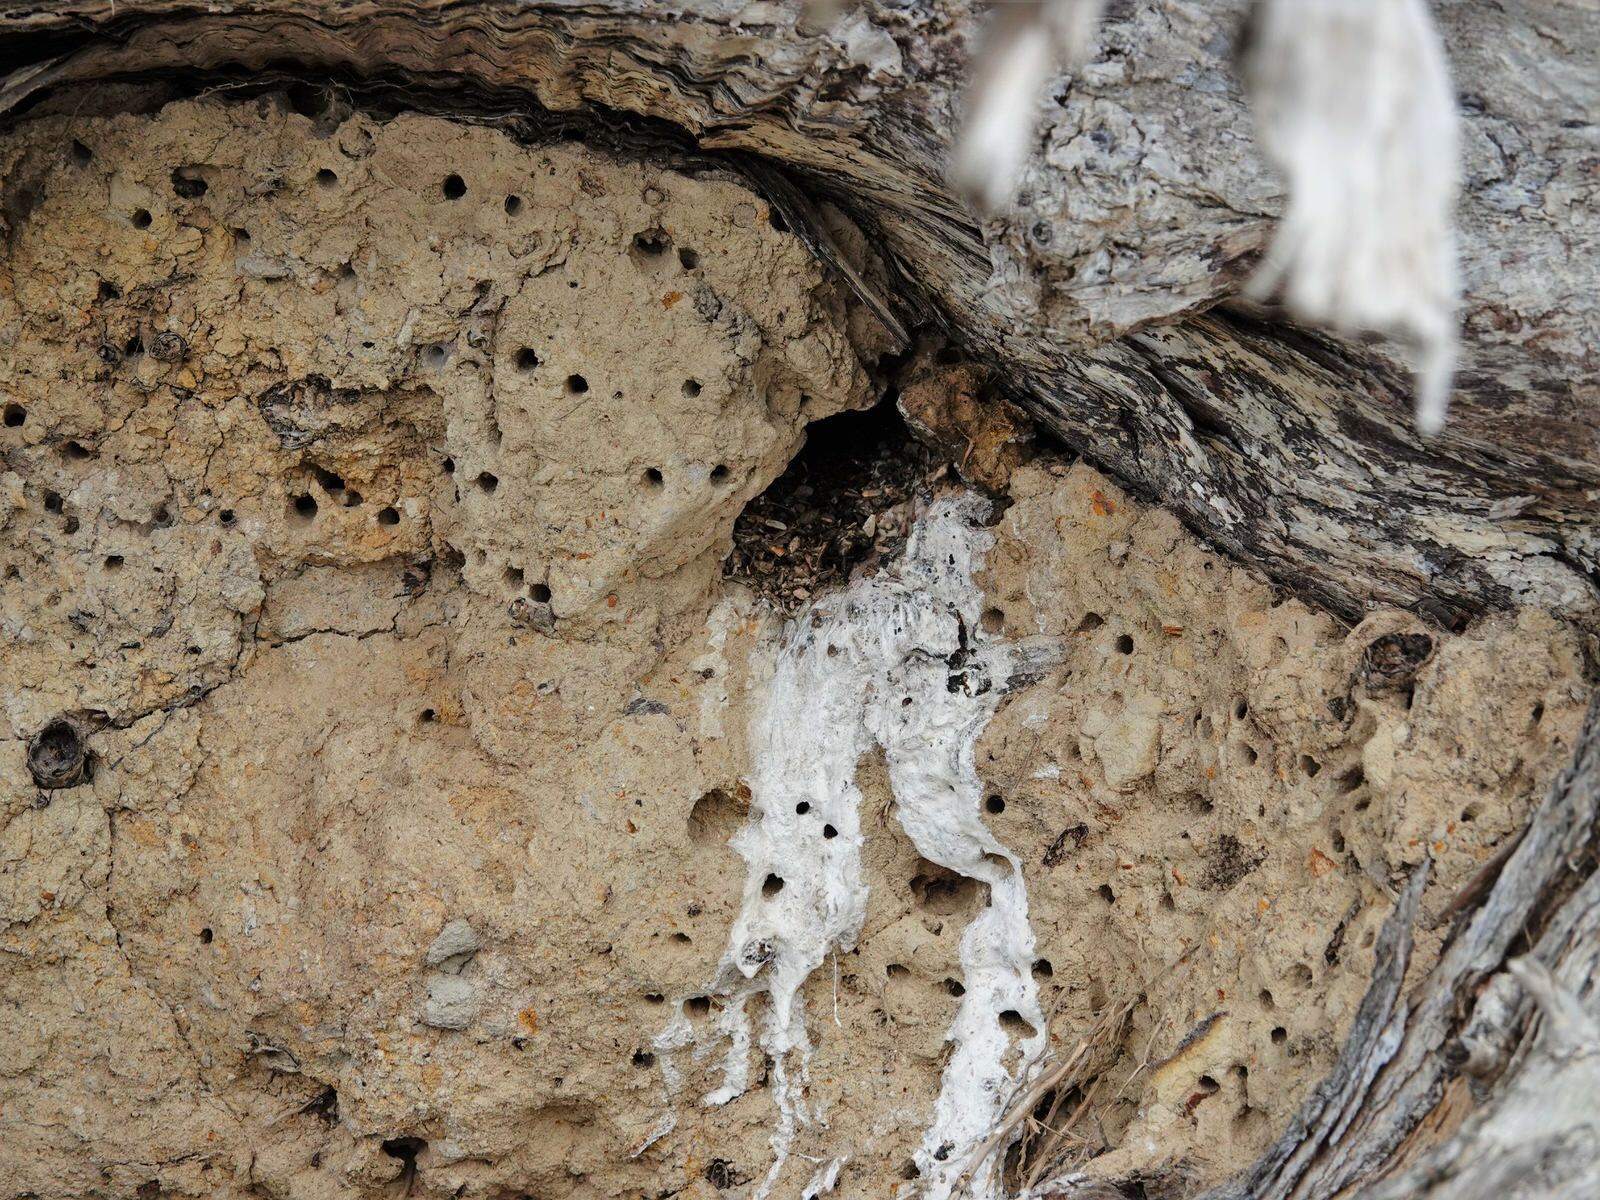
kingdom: Animalia
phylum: Chordata
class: Aves
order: Coraciiformes
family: Alcedinidae
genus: Todiramphus
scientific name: Todiramphus sanctus
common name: Sacred kingfisher
